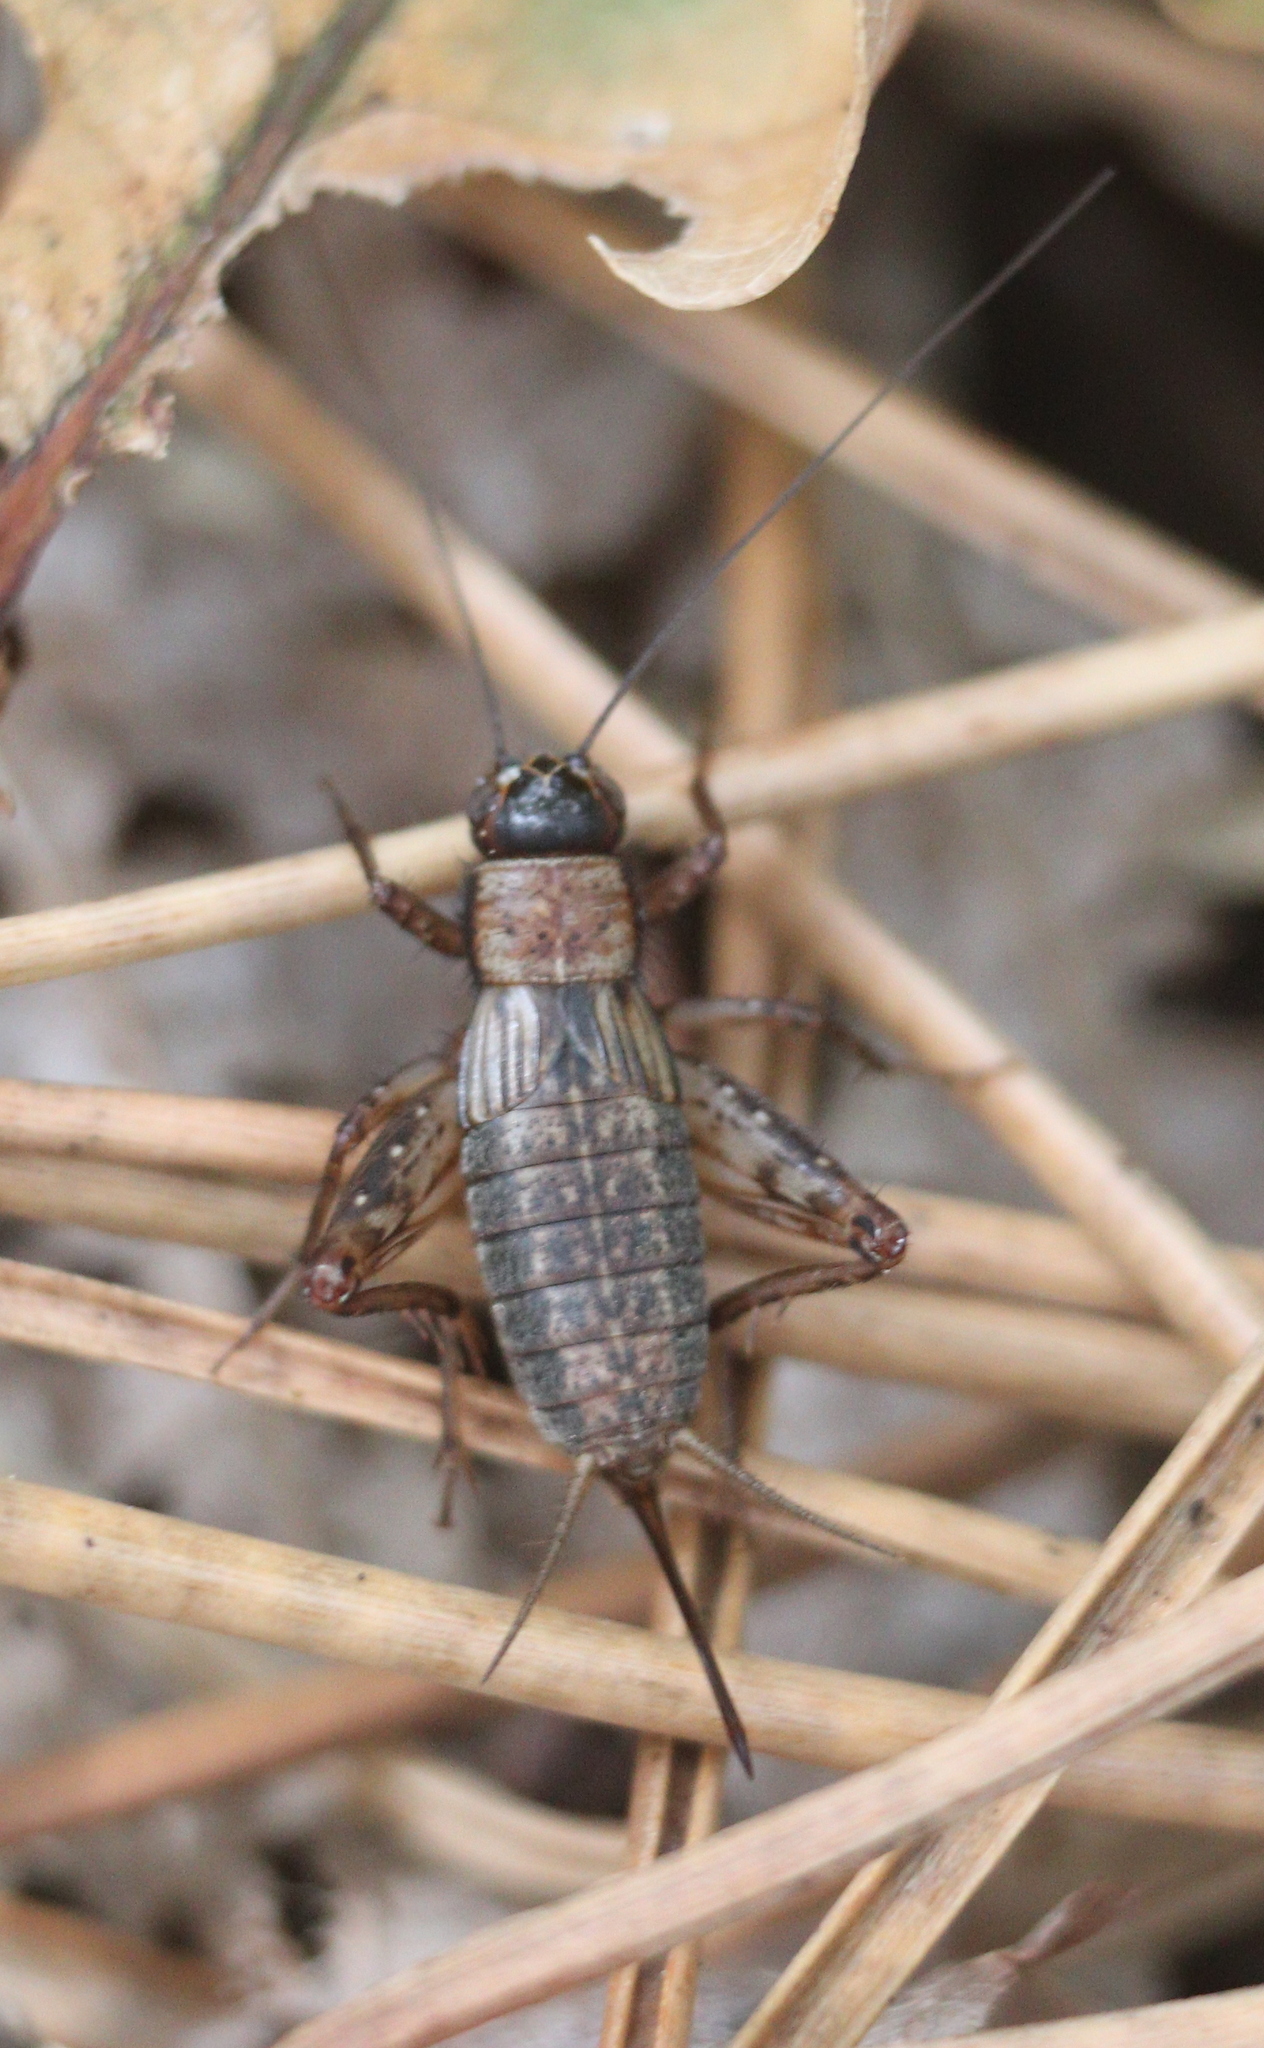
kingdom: Animalia
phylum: Arthropoda
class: Insecta
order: Orthoptera
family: Trigonidiidae
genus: Nemobius
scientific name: Nemobius sylvestris
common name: Wood-cricket
